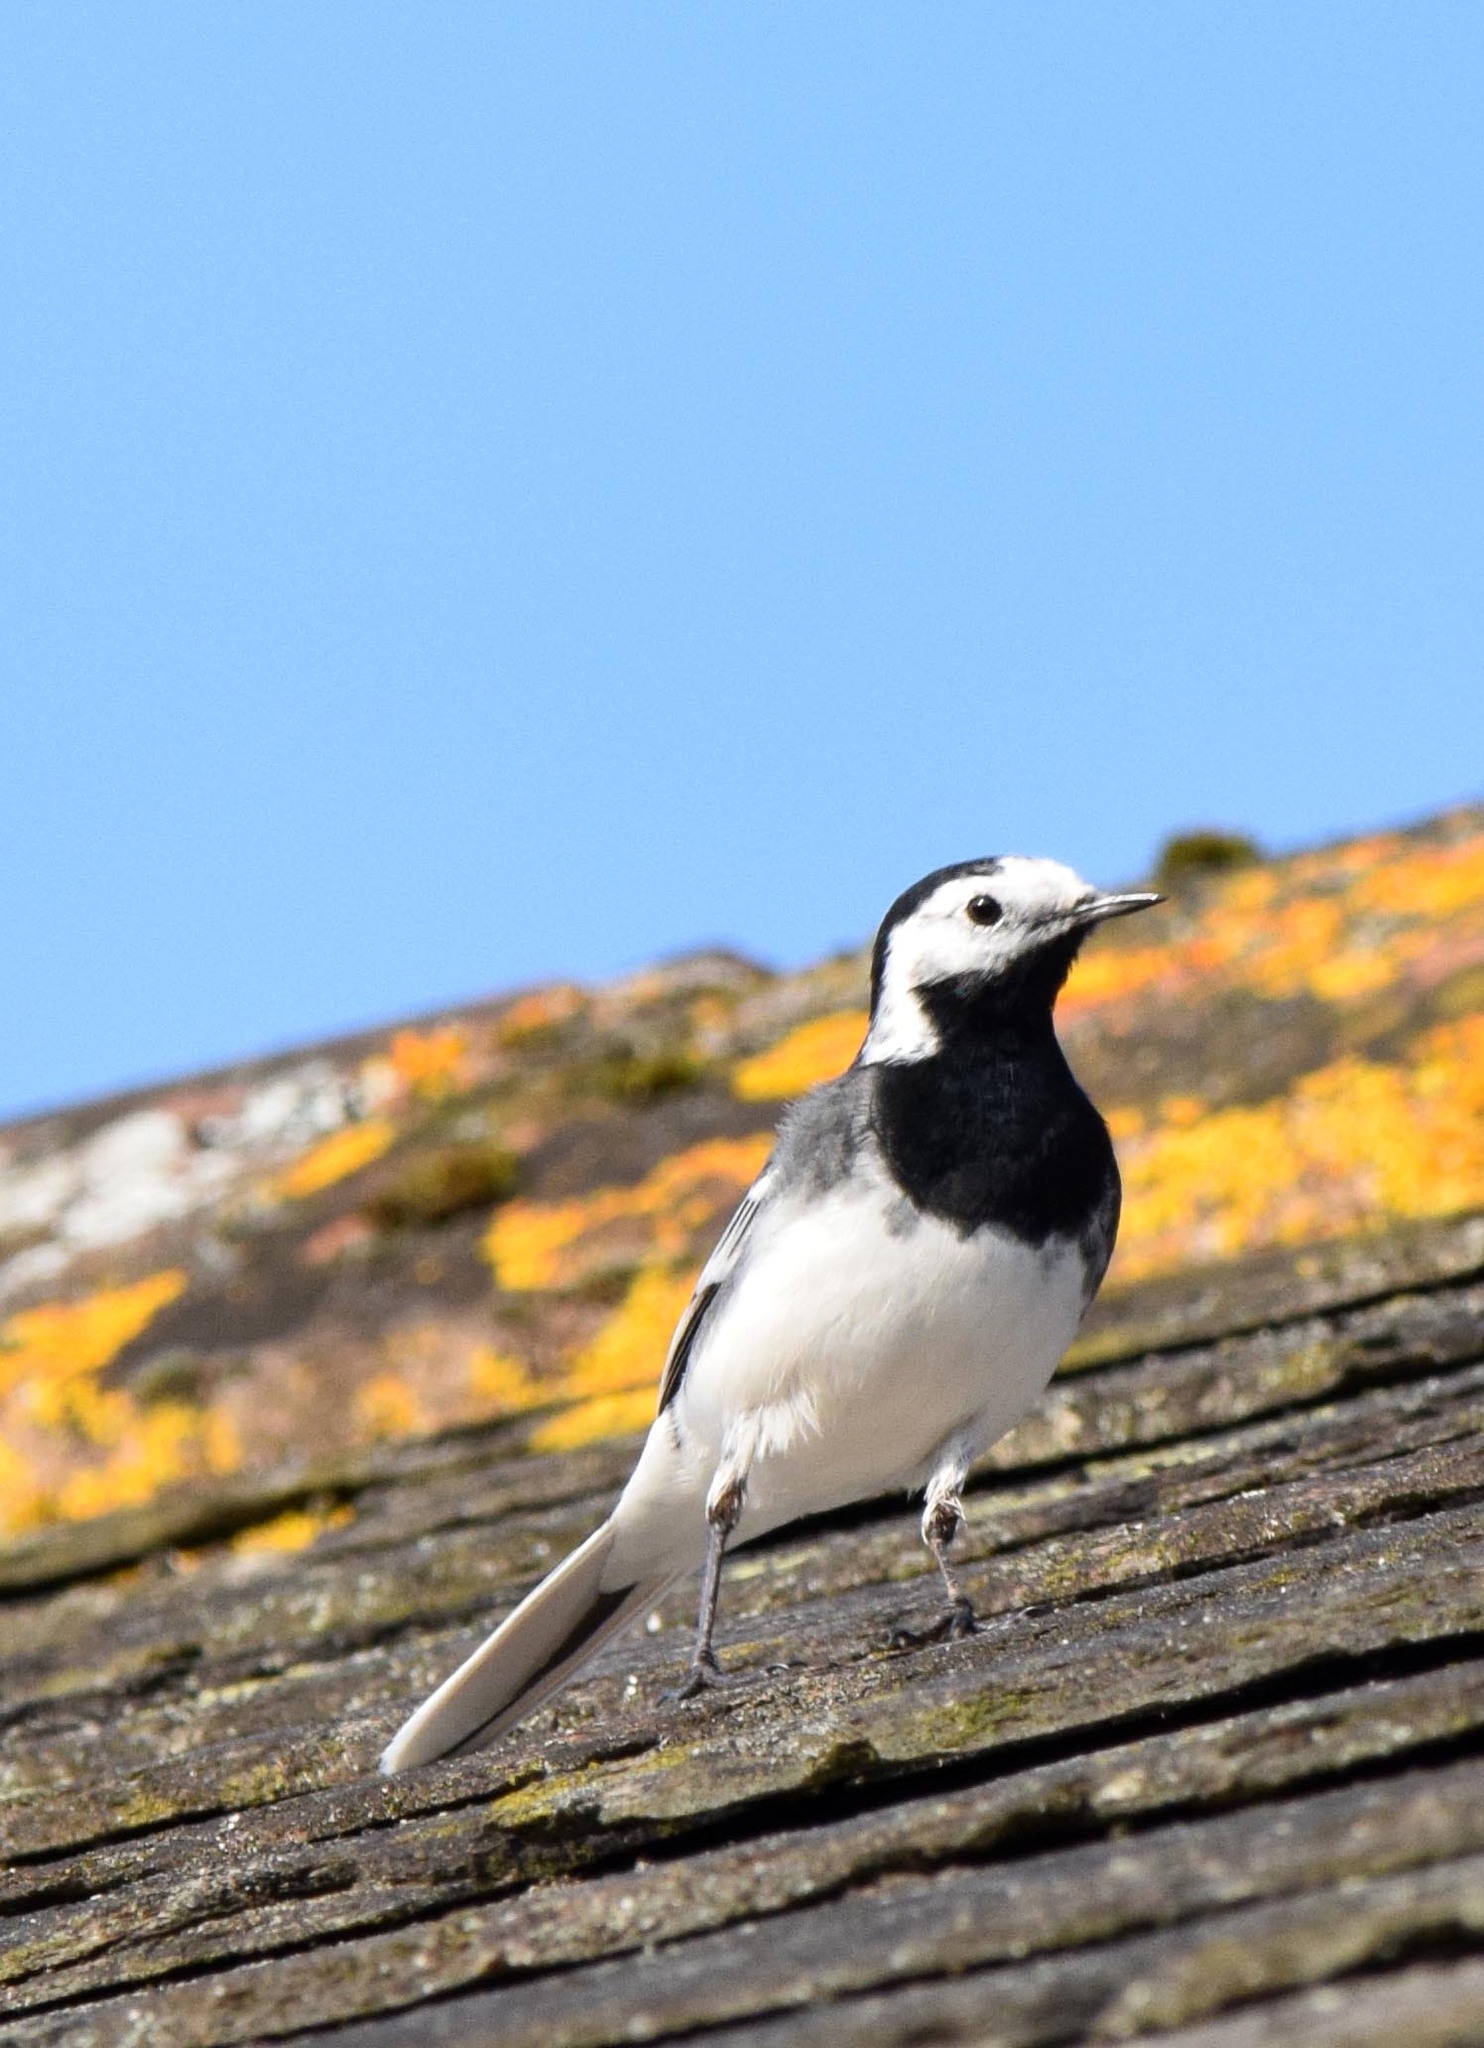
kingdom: Animalia
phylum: Chordata
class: Aves
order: Passeriformes
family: Motacillidae
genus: Motacilla
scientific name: Motacilla alba
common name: White wagtail
